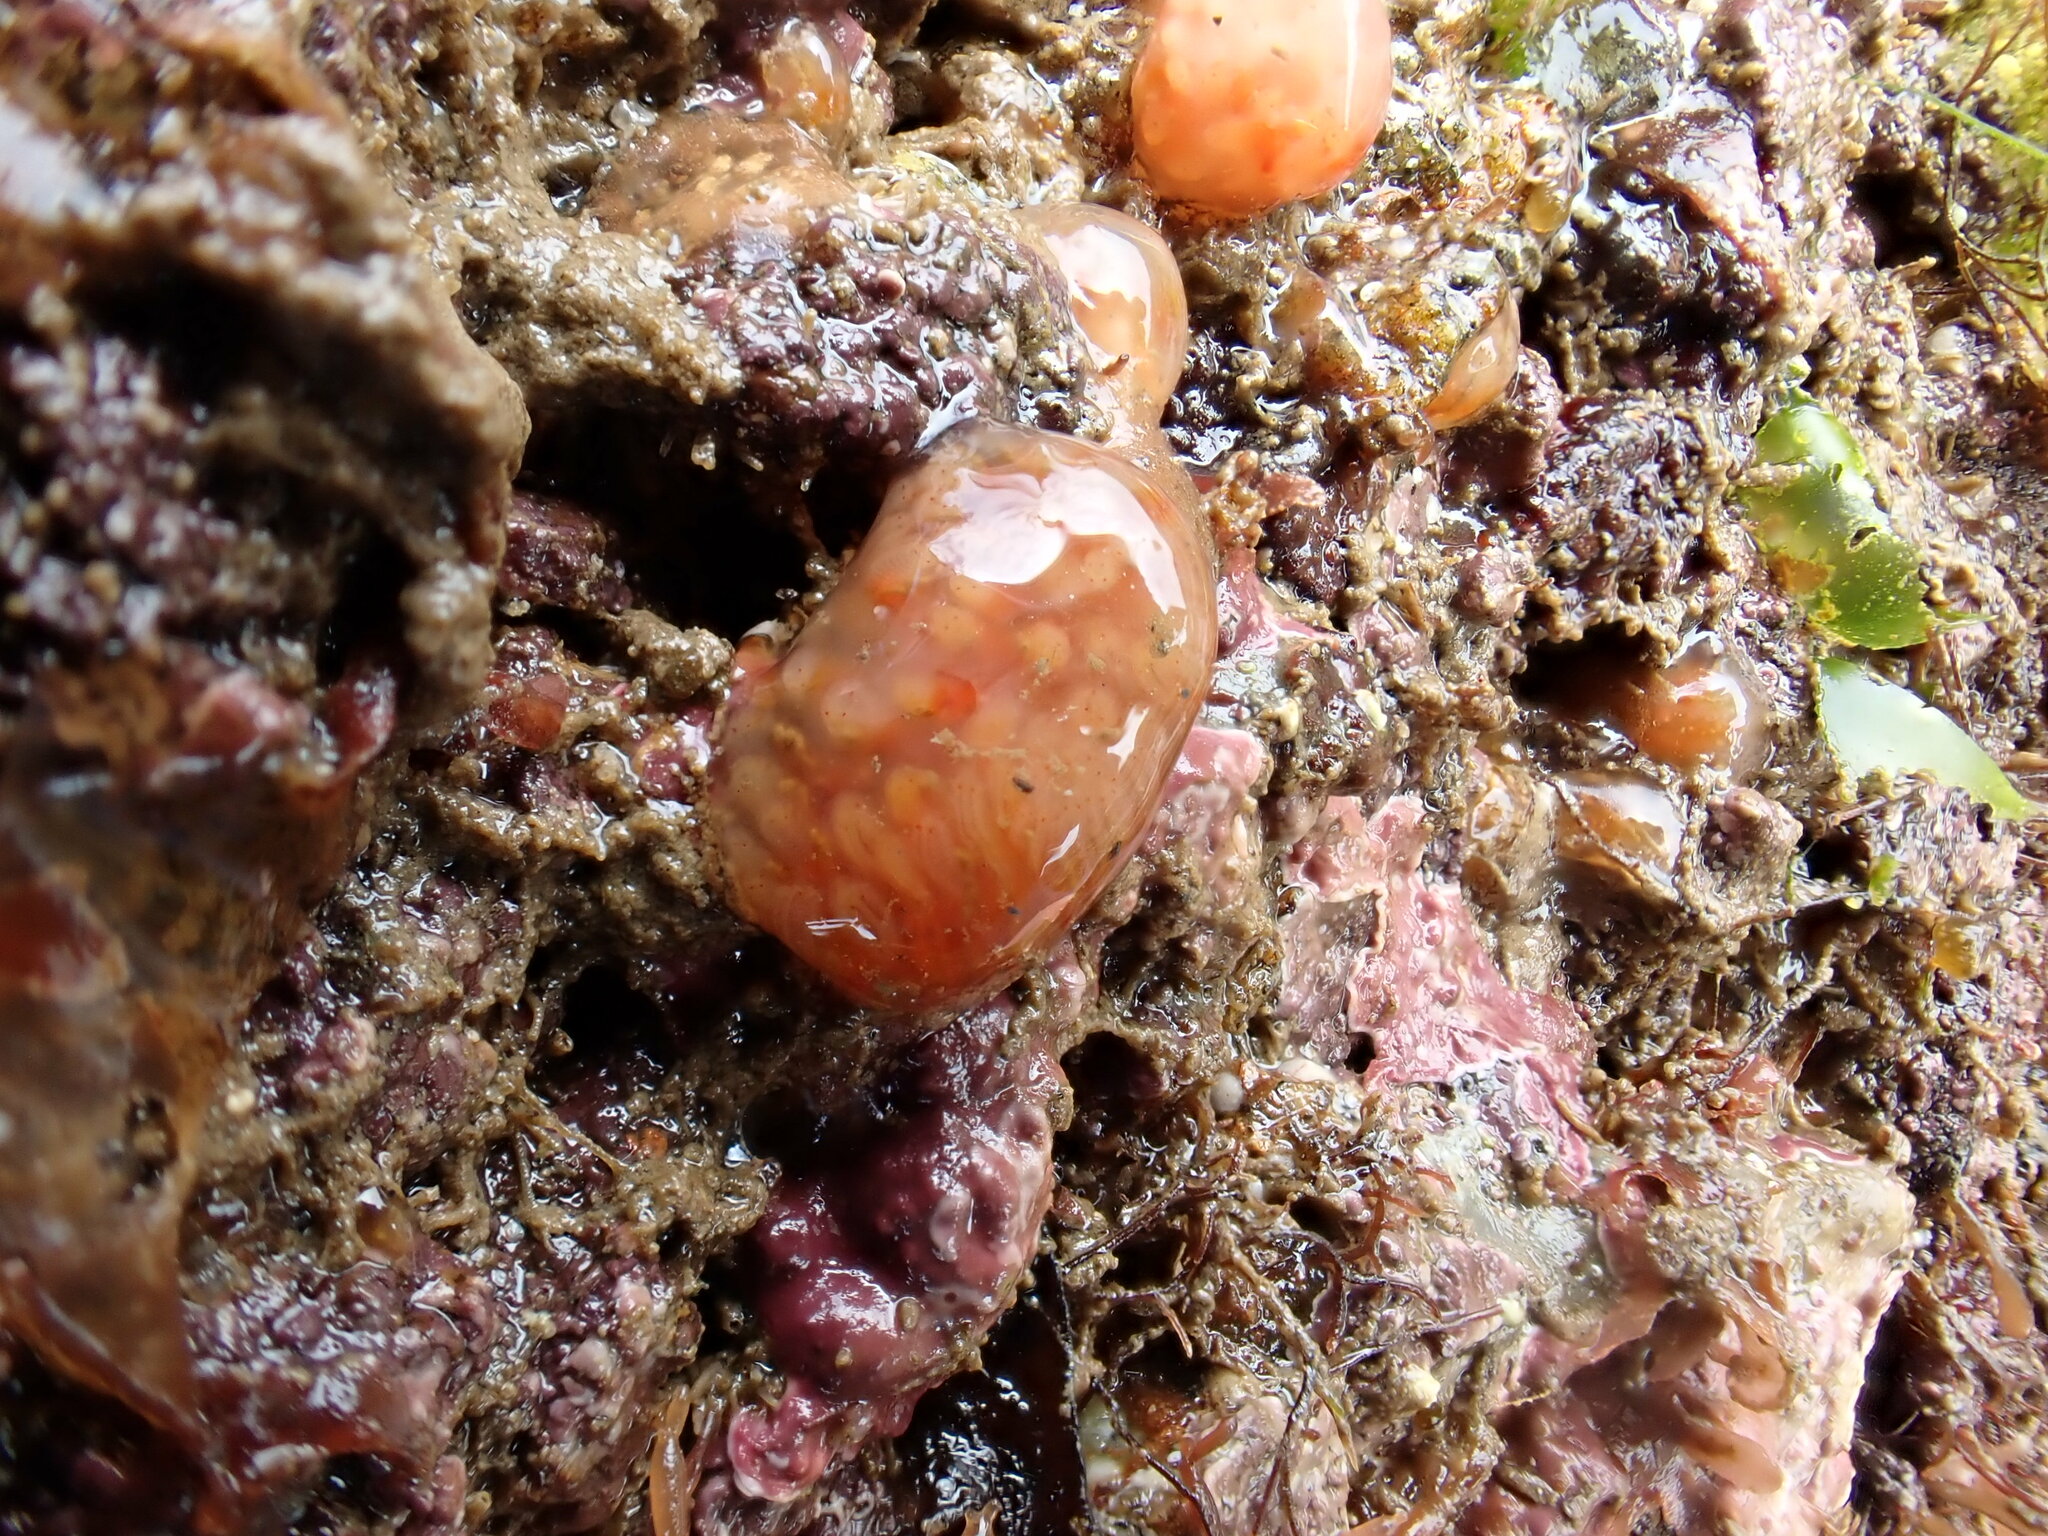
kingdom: Animalia
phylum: Chordata
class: Ascidiacea
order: Aplousobranchia
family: Polyclinidae
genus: Morchellium
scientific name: Morchellium argus
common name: Colonial sesquirt
